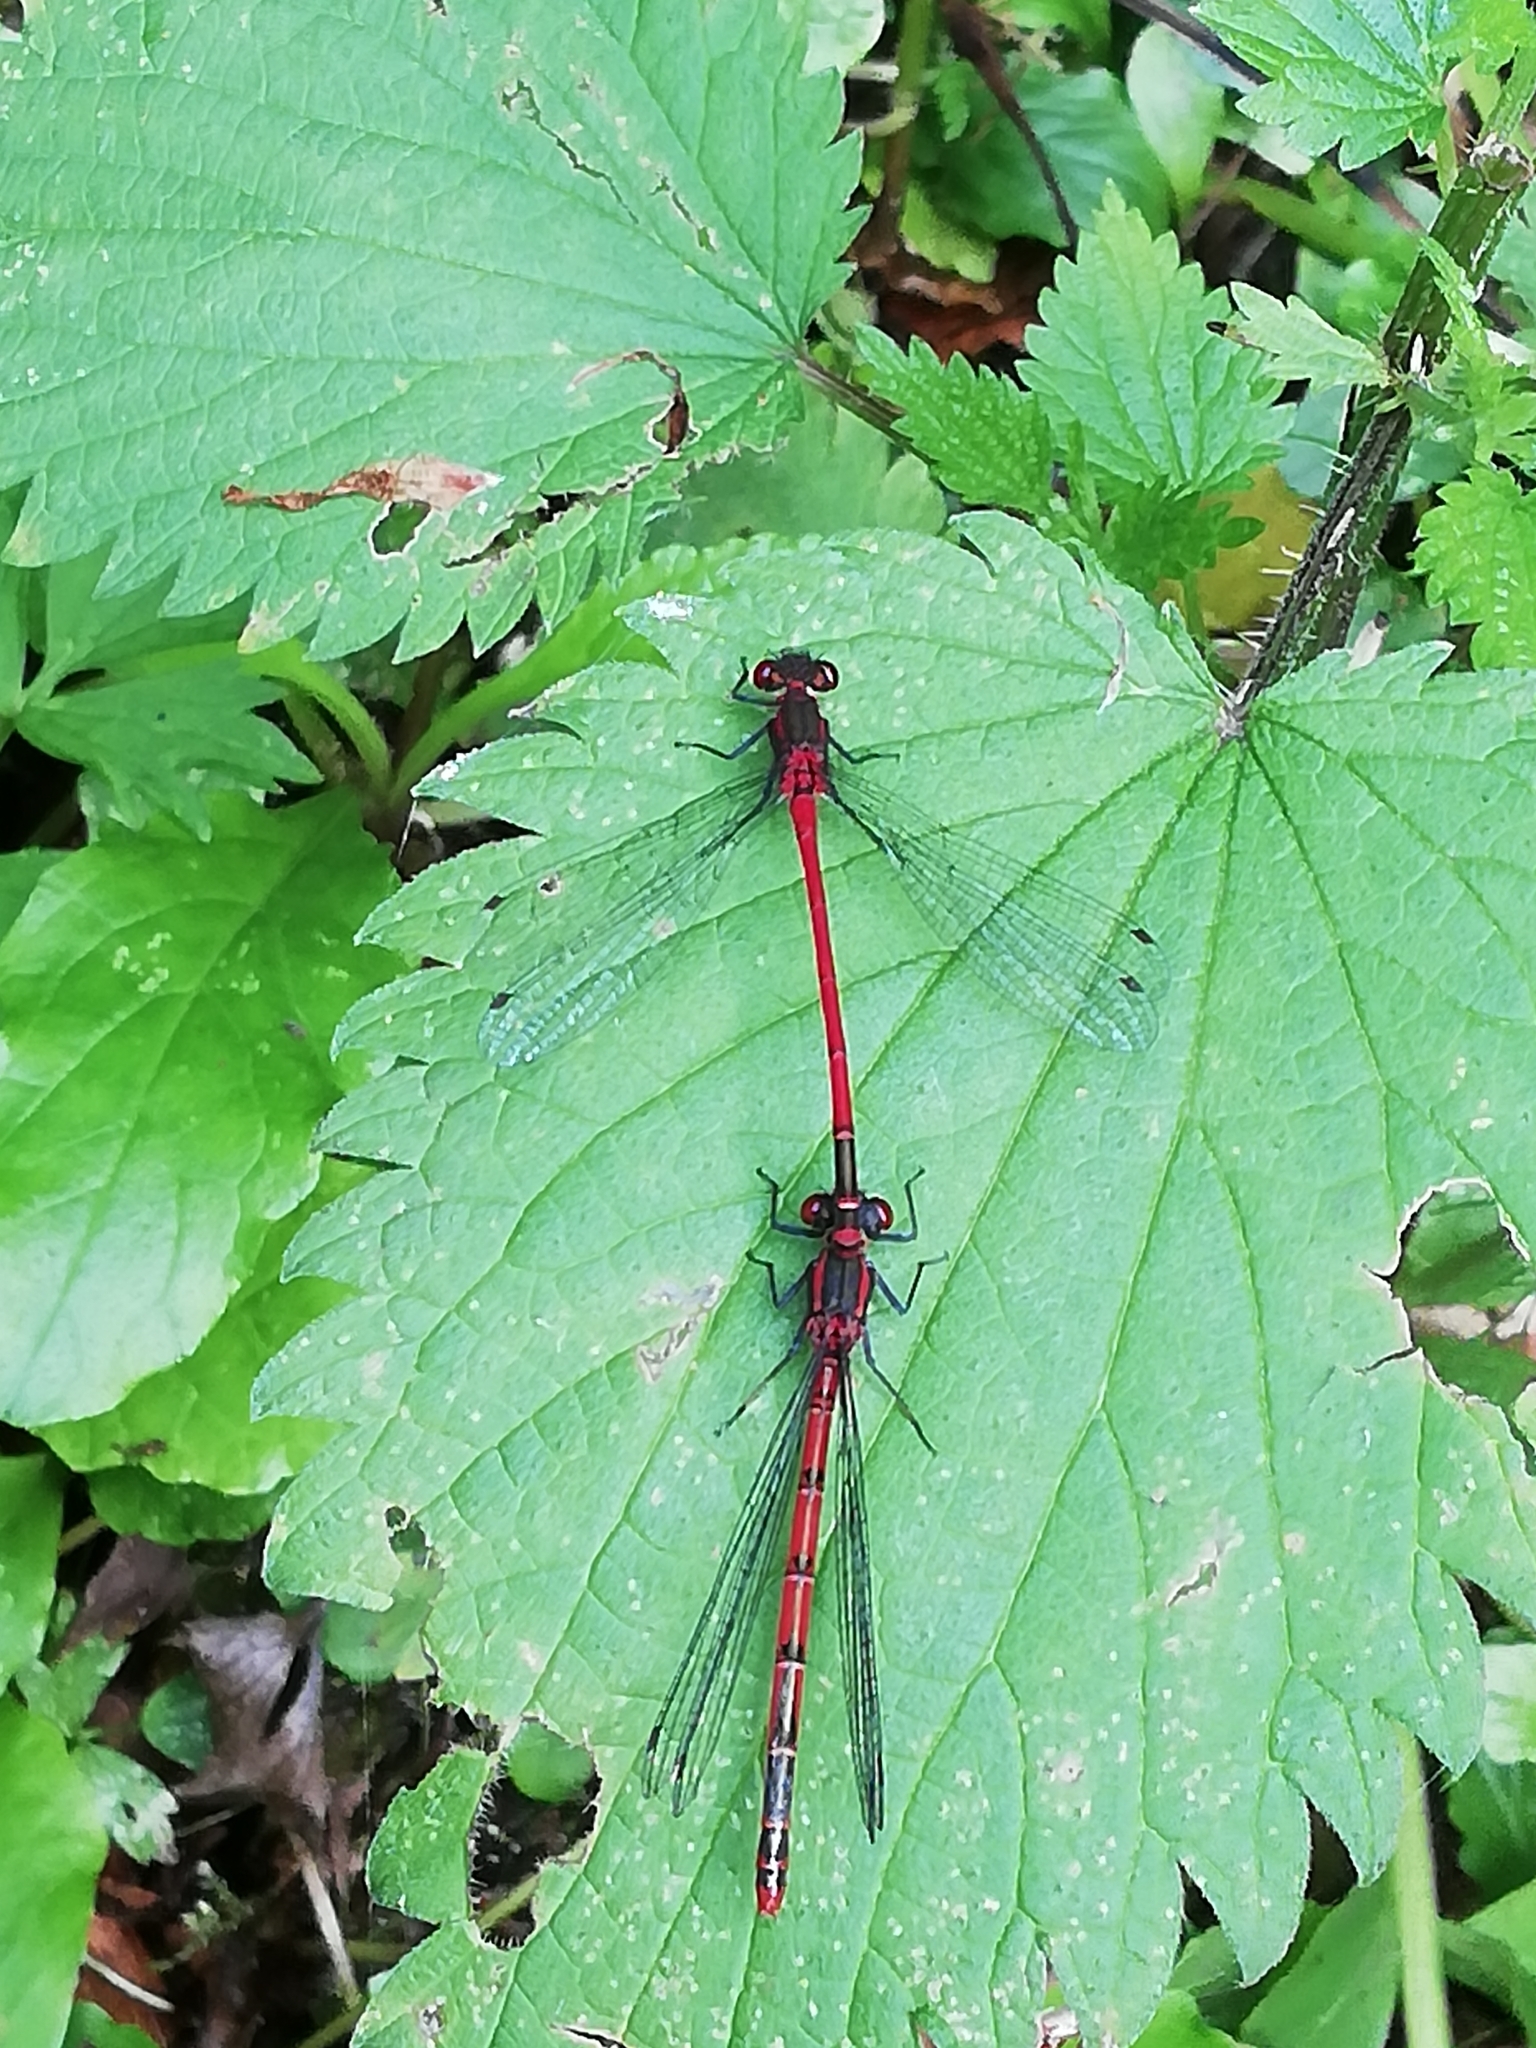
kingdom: Animalia
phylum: Arthropoda
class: Insecta
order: Odonata
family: Coenagrionidae
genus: Pyrrhosoma
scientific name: Pyrrhosoma nymphula
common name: Large red damsel
